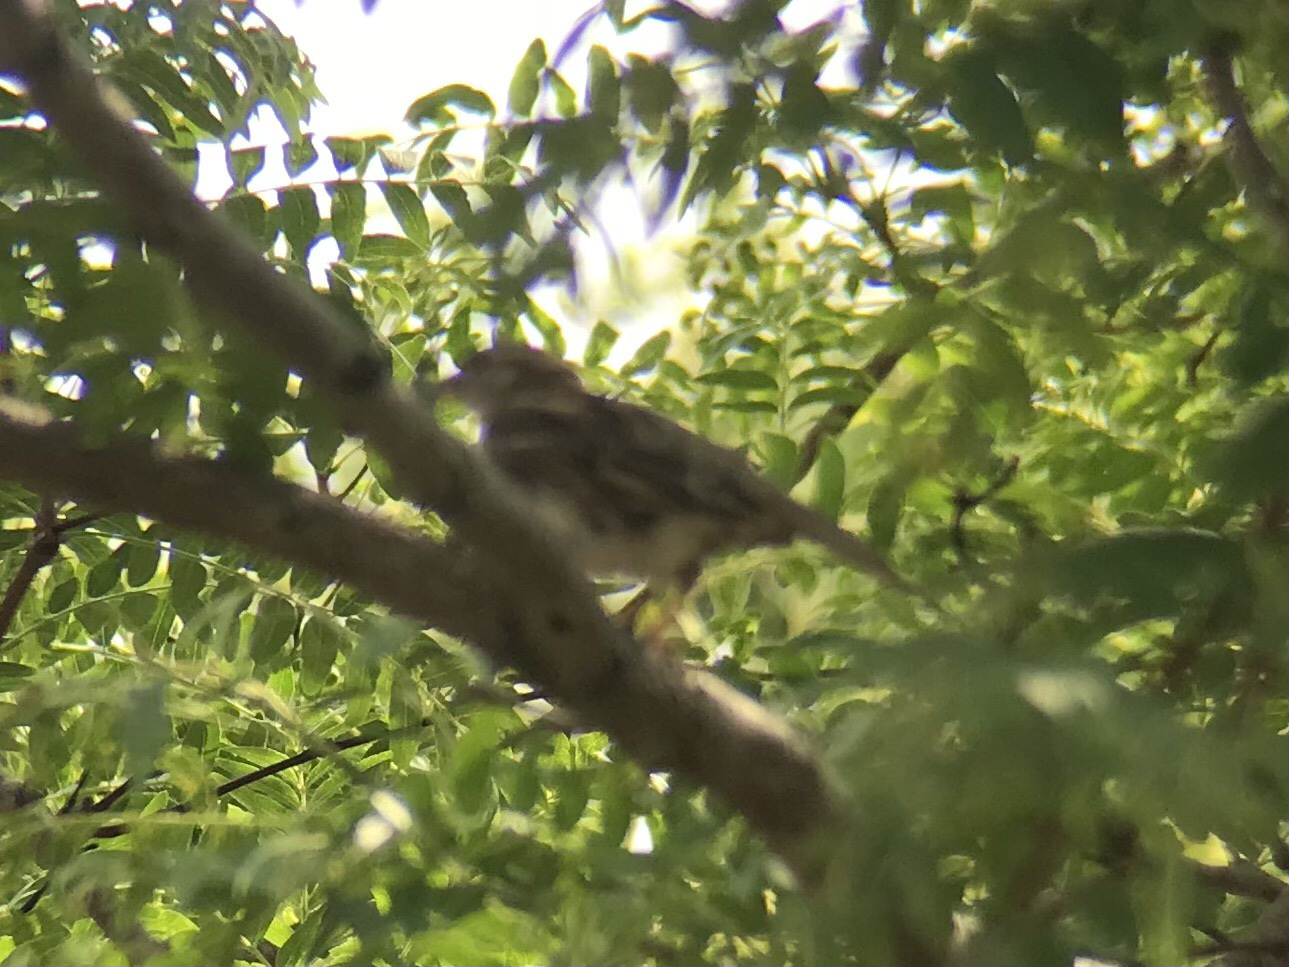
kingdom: Animalia
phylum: Chordata
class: Aves
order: Passeriformes
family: Passeridae
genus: Passer
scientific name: Passer domesticus
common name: House sparrow
